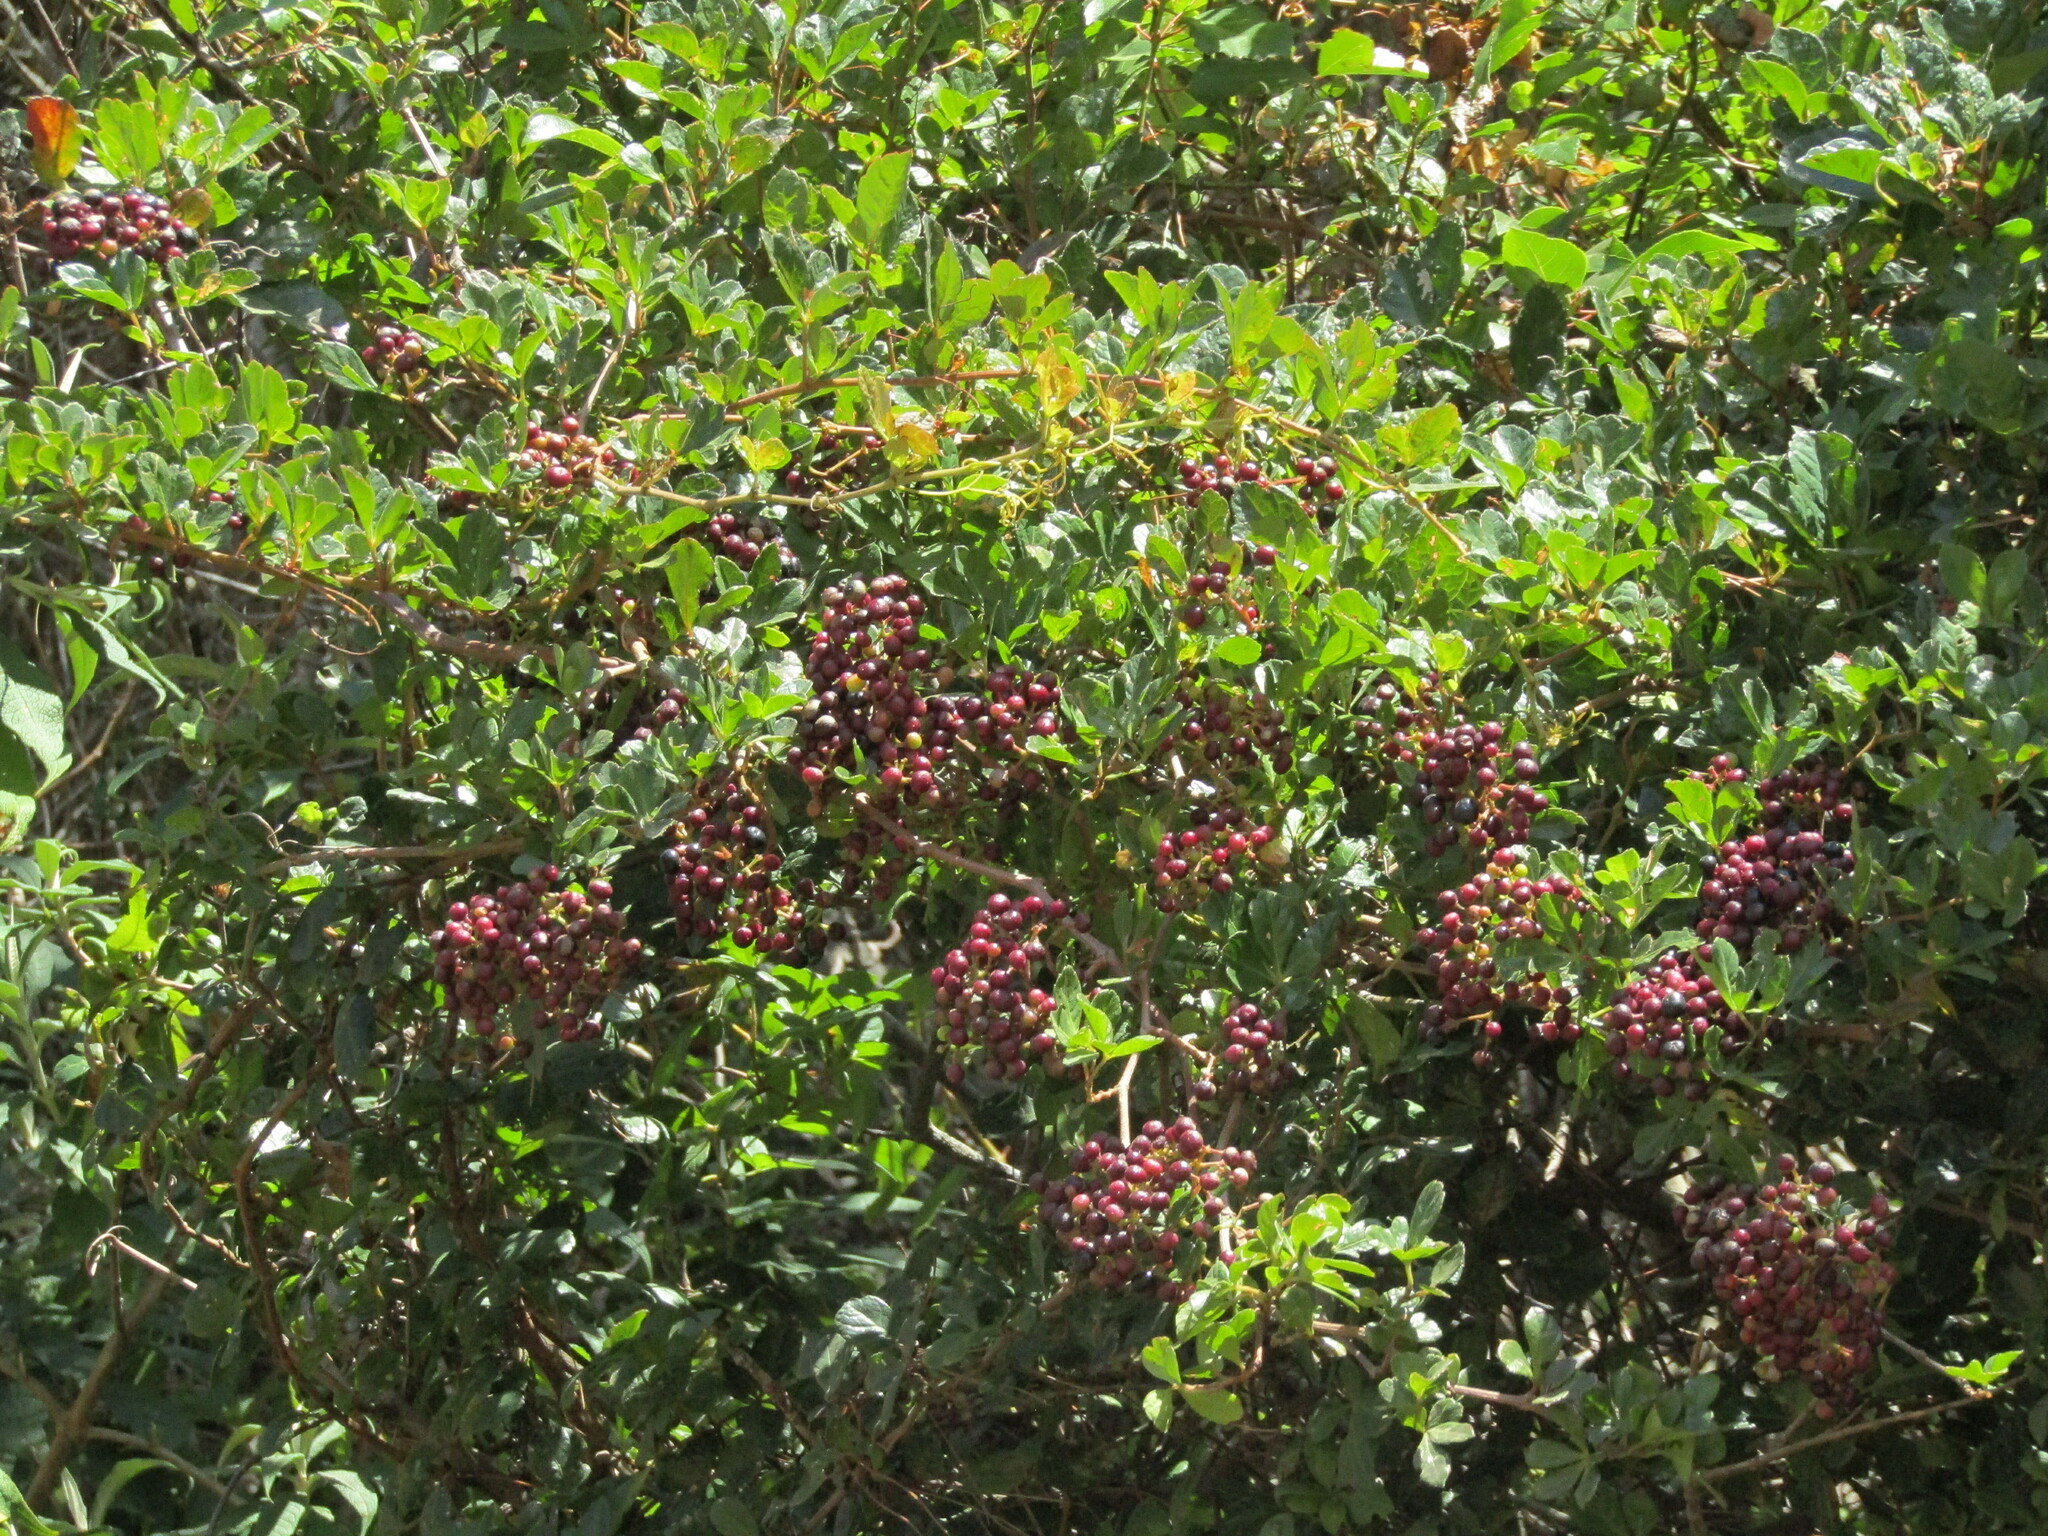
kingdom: Plantae
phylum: Tracheophyta
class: Magnoliopsida
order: Vitales
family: Vitaceae
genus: Clematicissus
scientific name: Clematicissus striata
